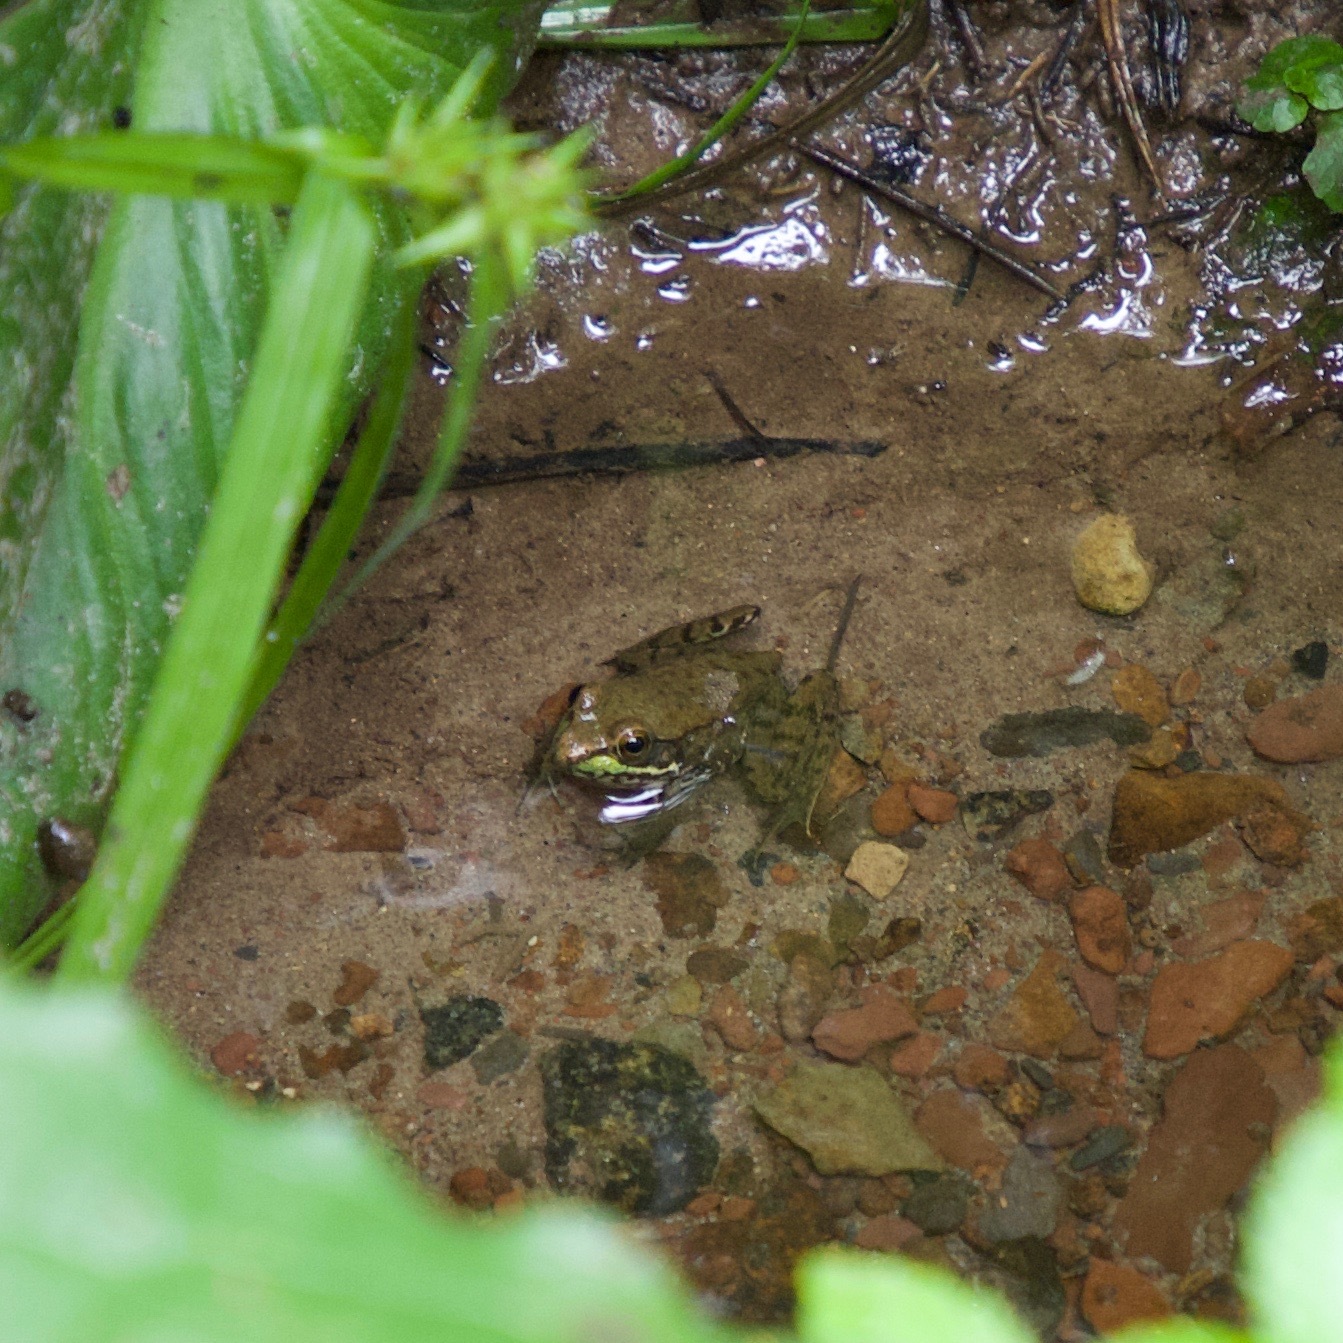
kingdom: Animalia
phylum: Chordata
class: Amphibia
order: Anura
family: Ranidae
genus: Lithobates
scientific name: Lithobates clamitans
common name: Green frog
